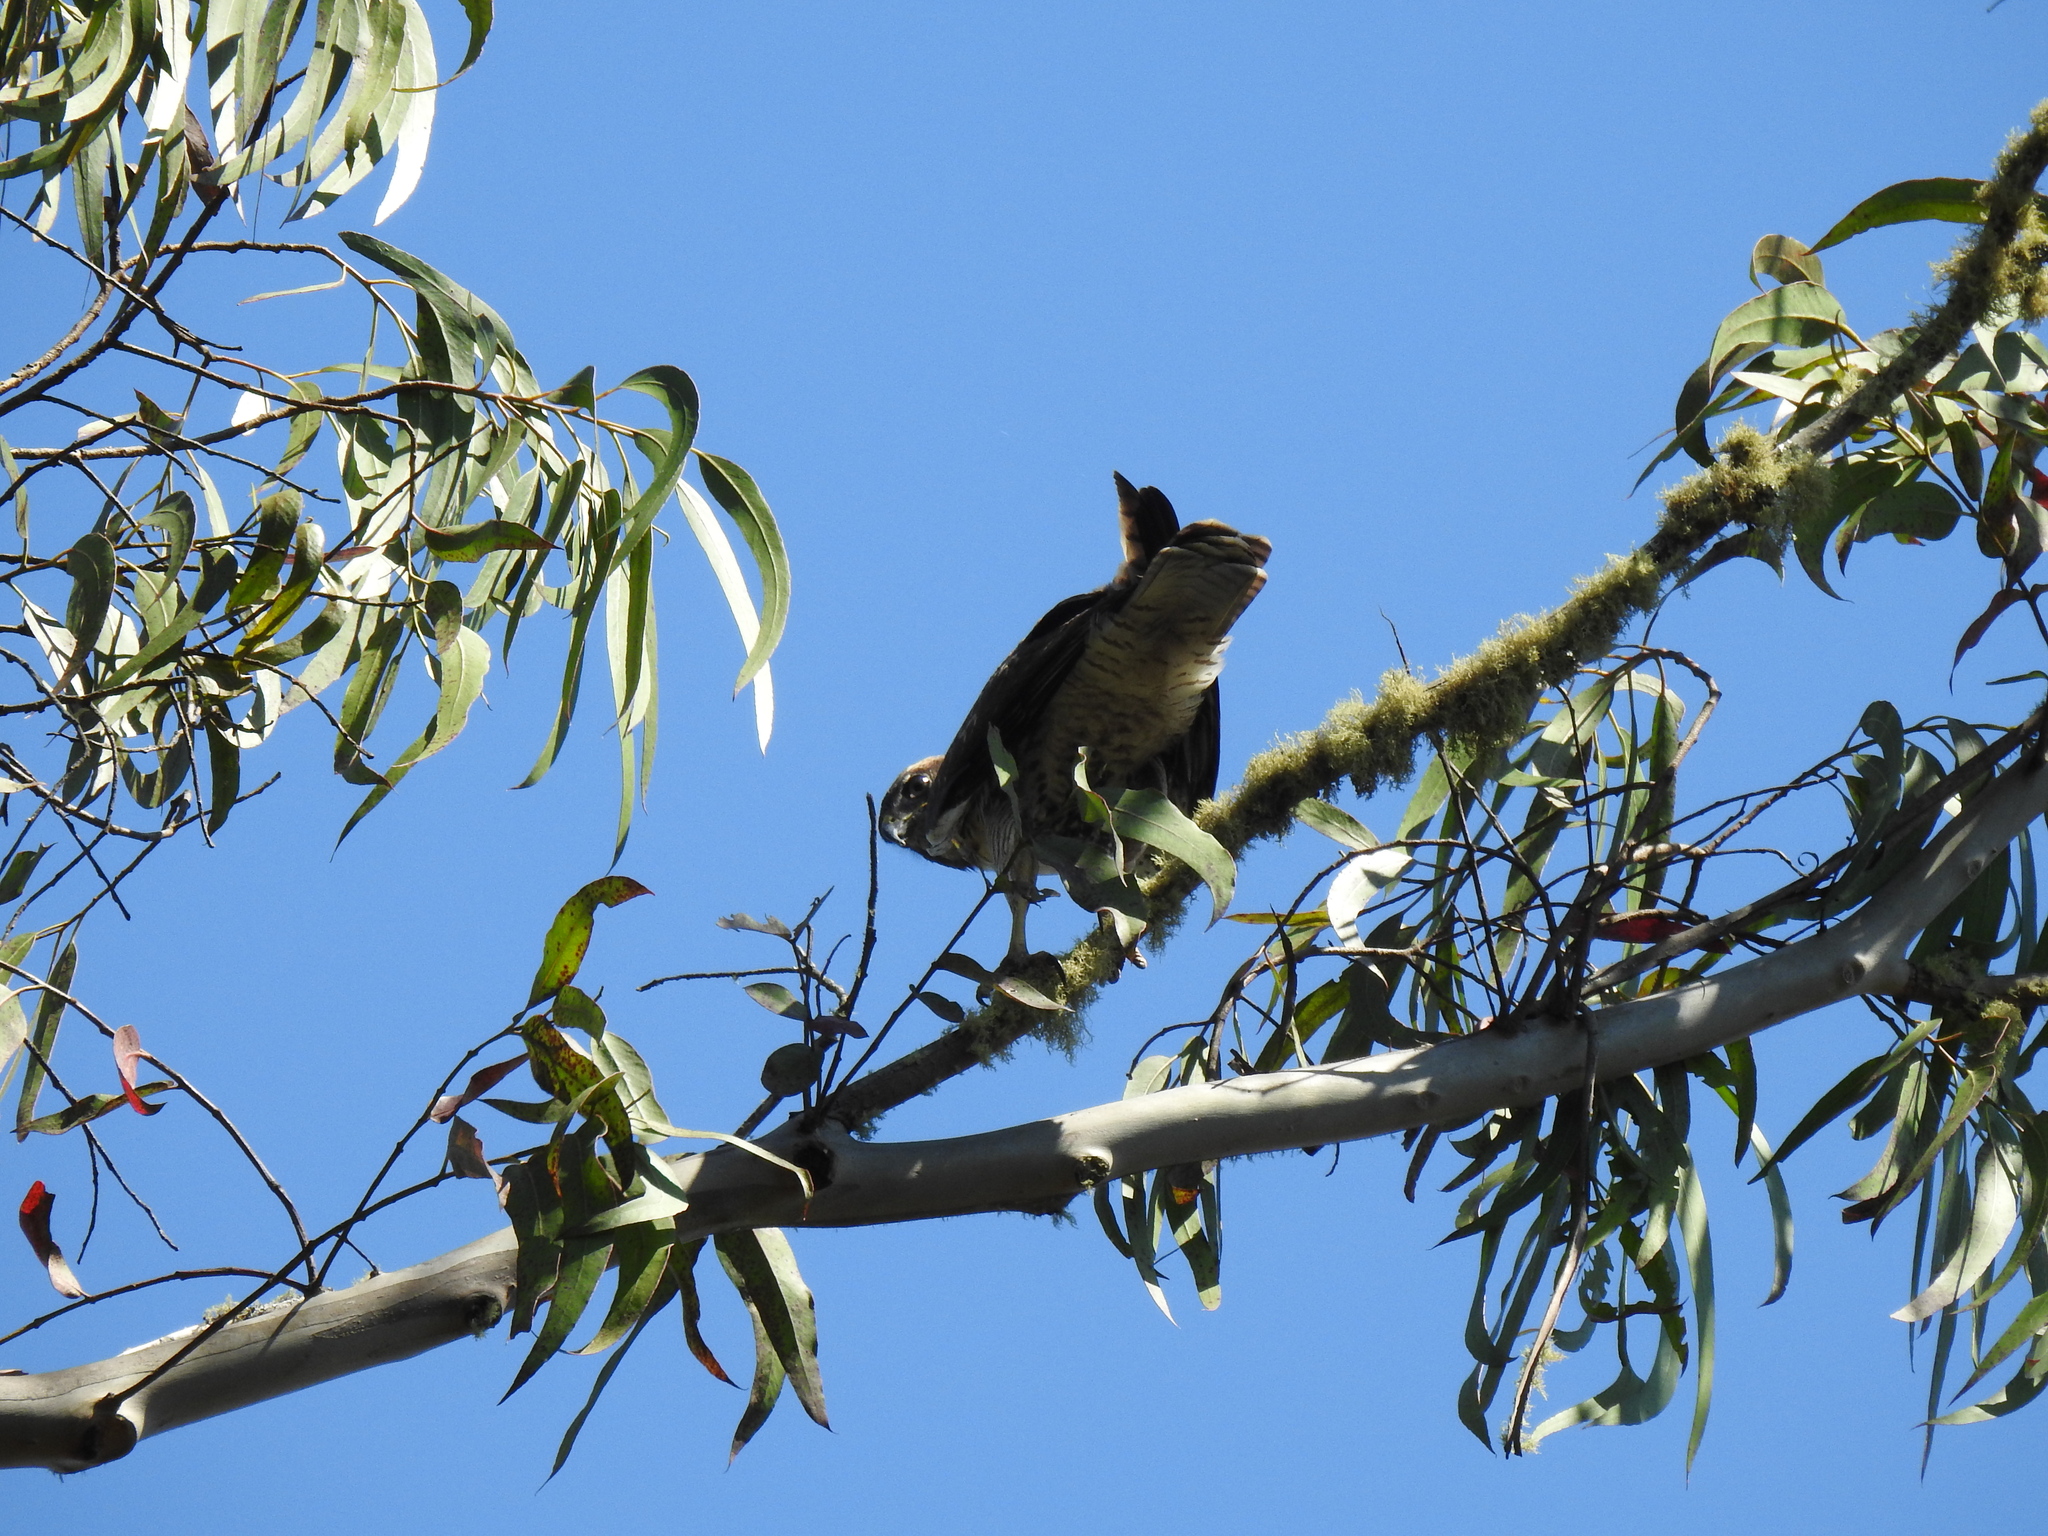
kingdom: Animalia
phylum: Chordata
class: Aves
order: Accipitriformes
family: Accipitridae
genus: Buteo
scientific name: Buteo jamaicensis
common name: Red-tailed hawk
